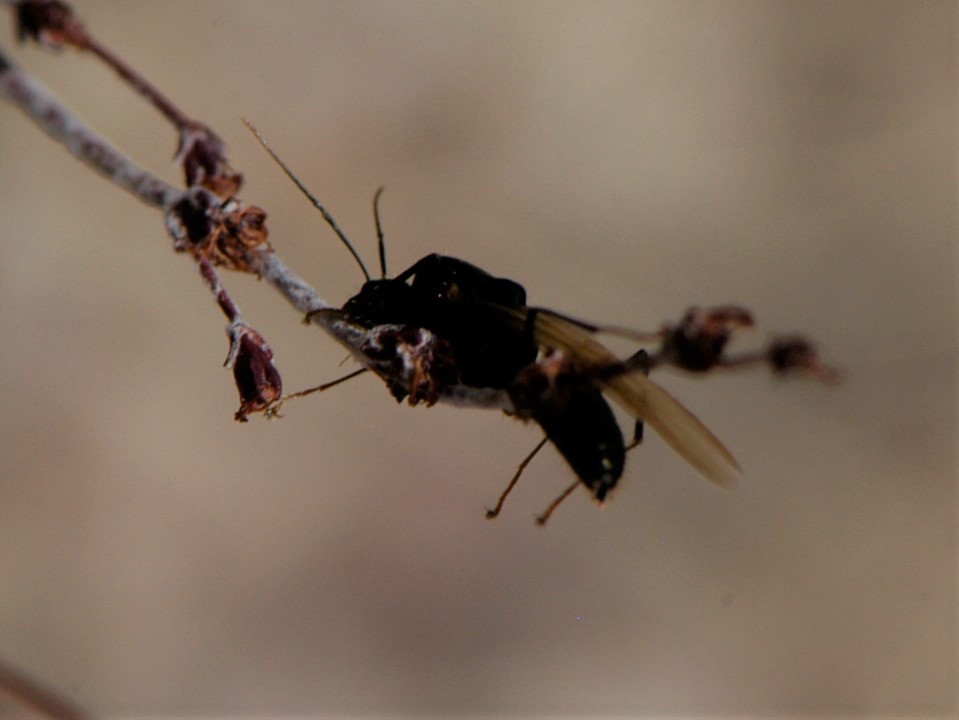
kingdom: Animalia
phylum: Arthropoda
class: Insecta
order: Hymenoptera
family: Formicidae
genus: Camponotus
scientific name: Camponotus
